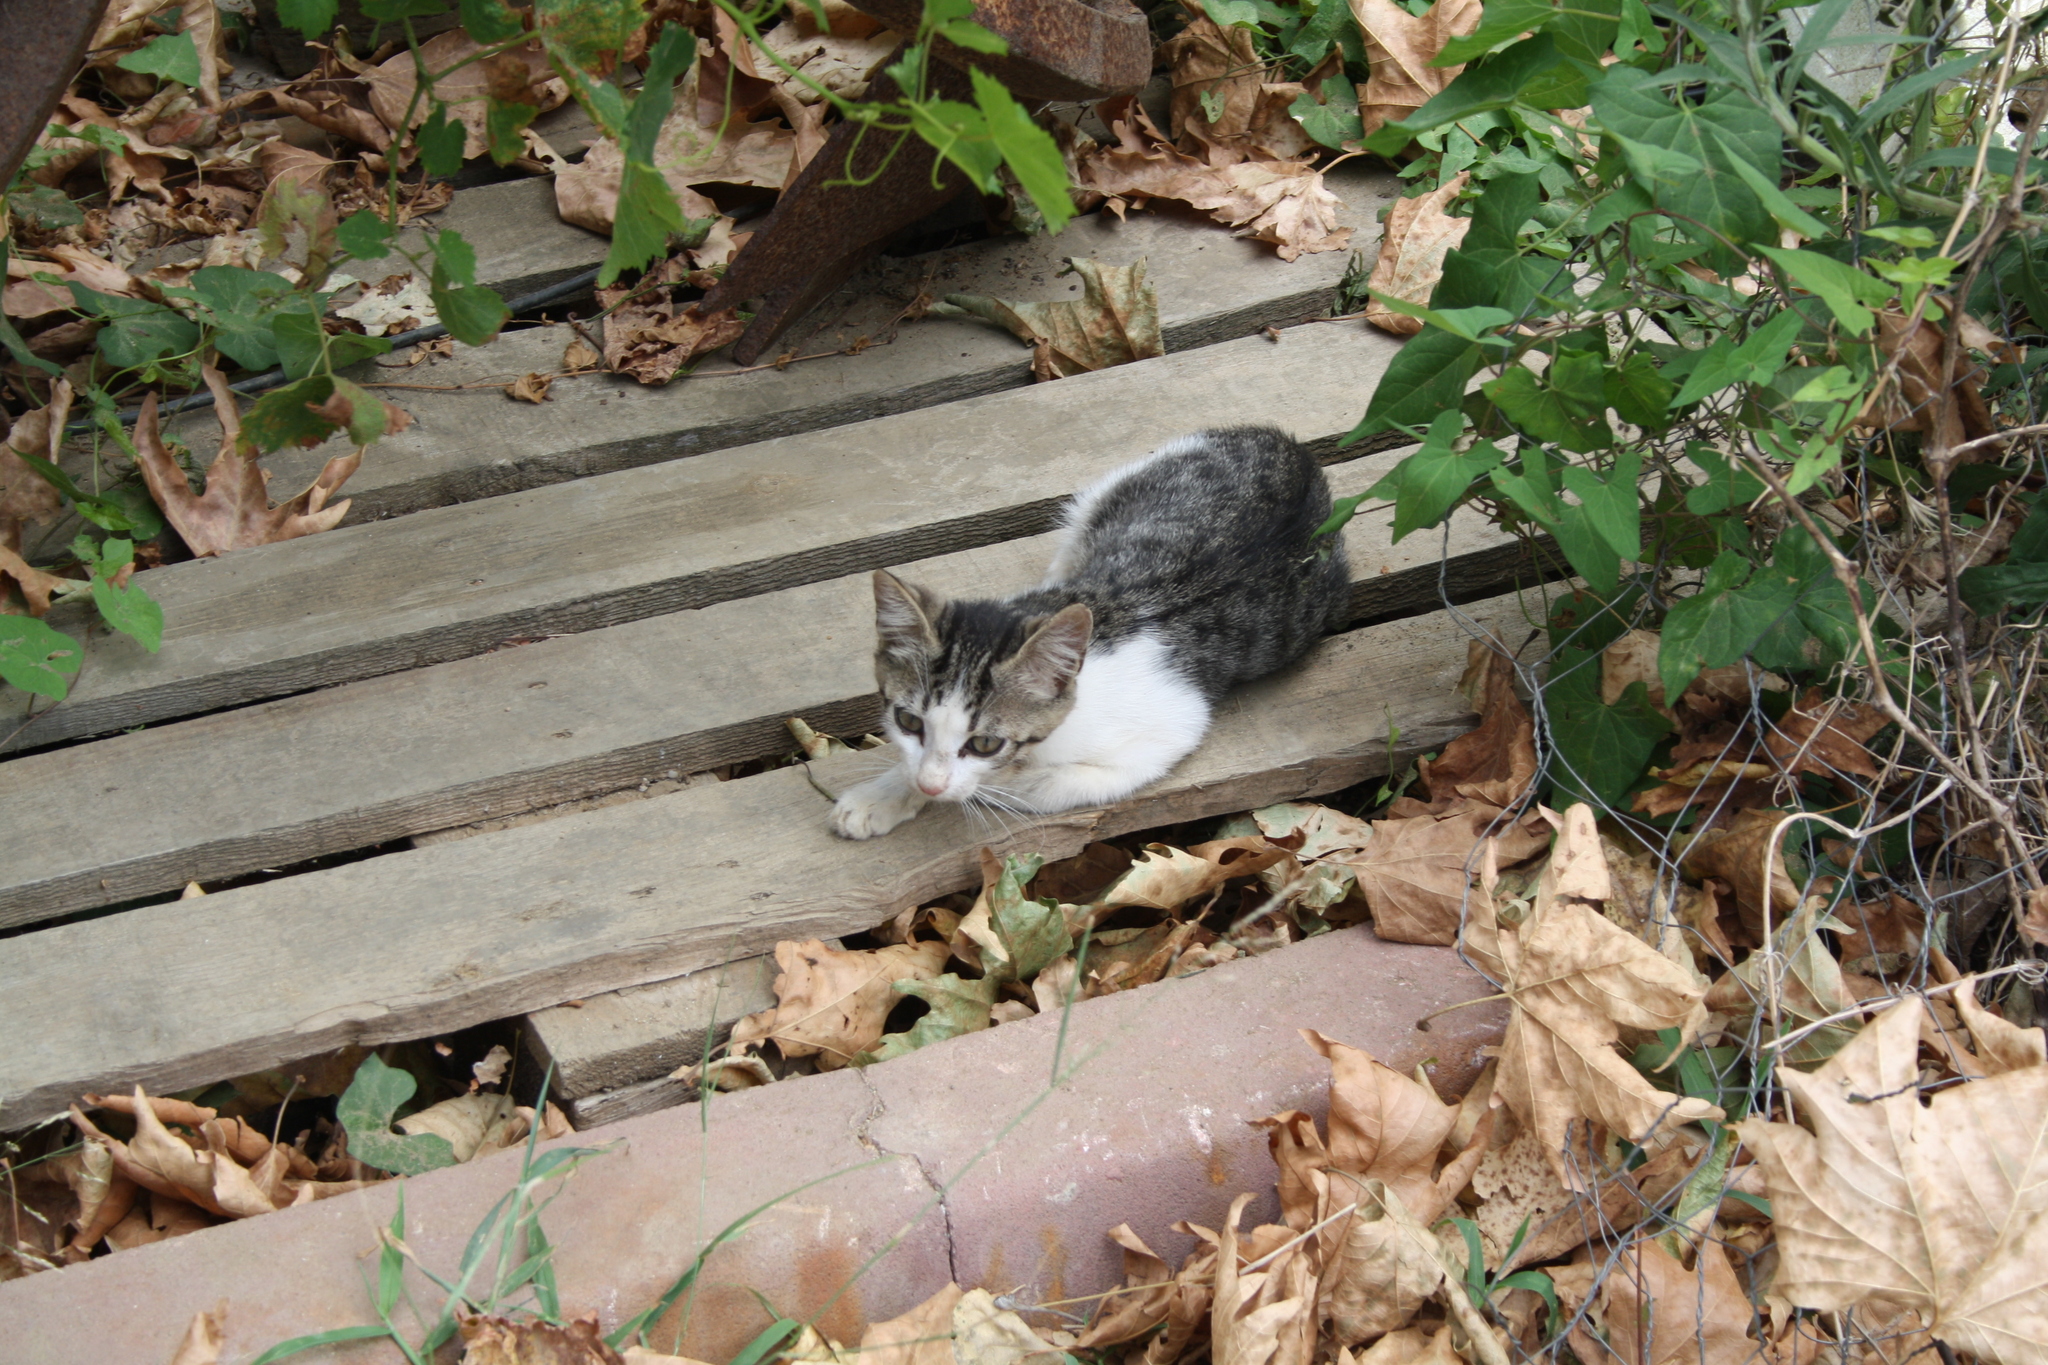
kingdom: Animalia
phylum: Chordata
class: Mammalia
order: Carnivora
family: Felidae
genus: Felis
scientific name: Felis catus
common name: Domestic cat
